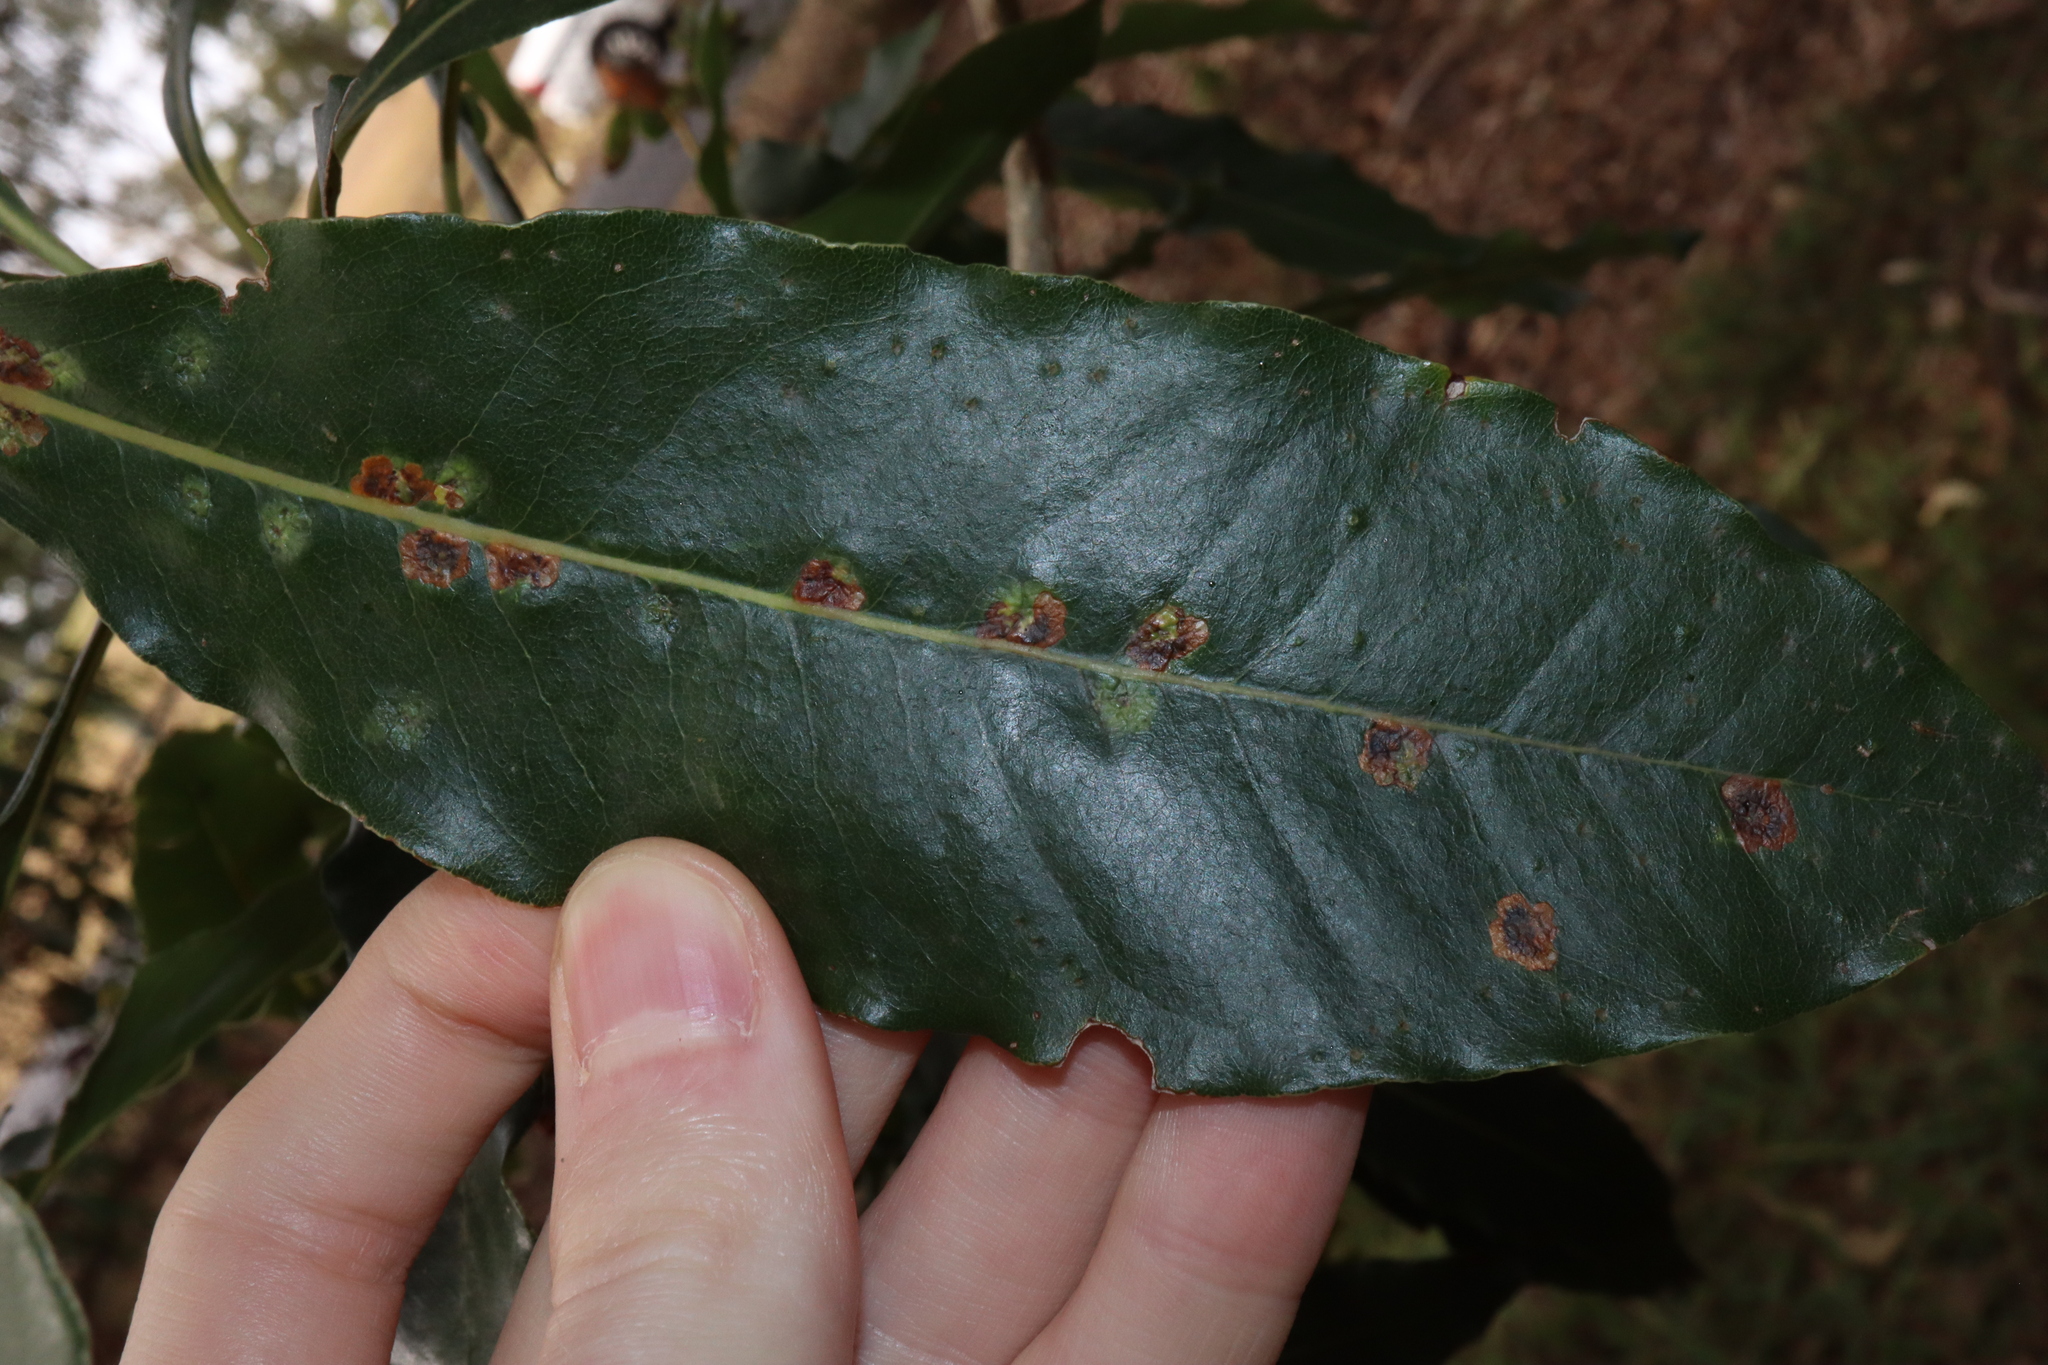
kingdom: Animalia
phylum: Arthropoda
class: Insecta
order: Diptera
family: Agromyzidae
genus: Phytoliriomyza
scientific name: Phytoliriomyza pittosporophylli
